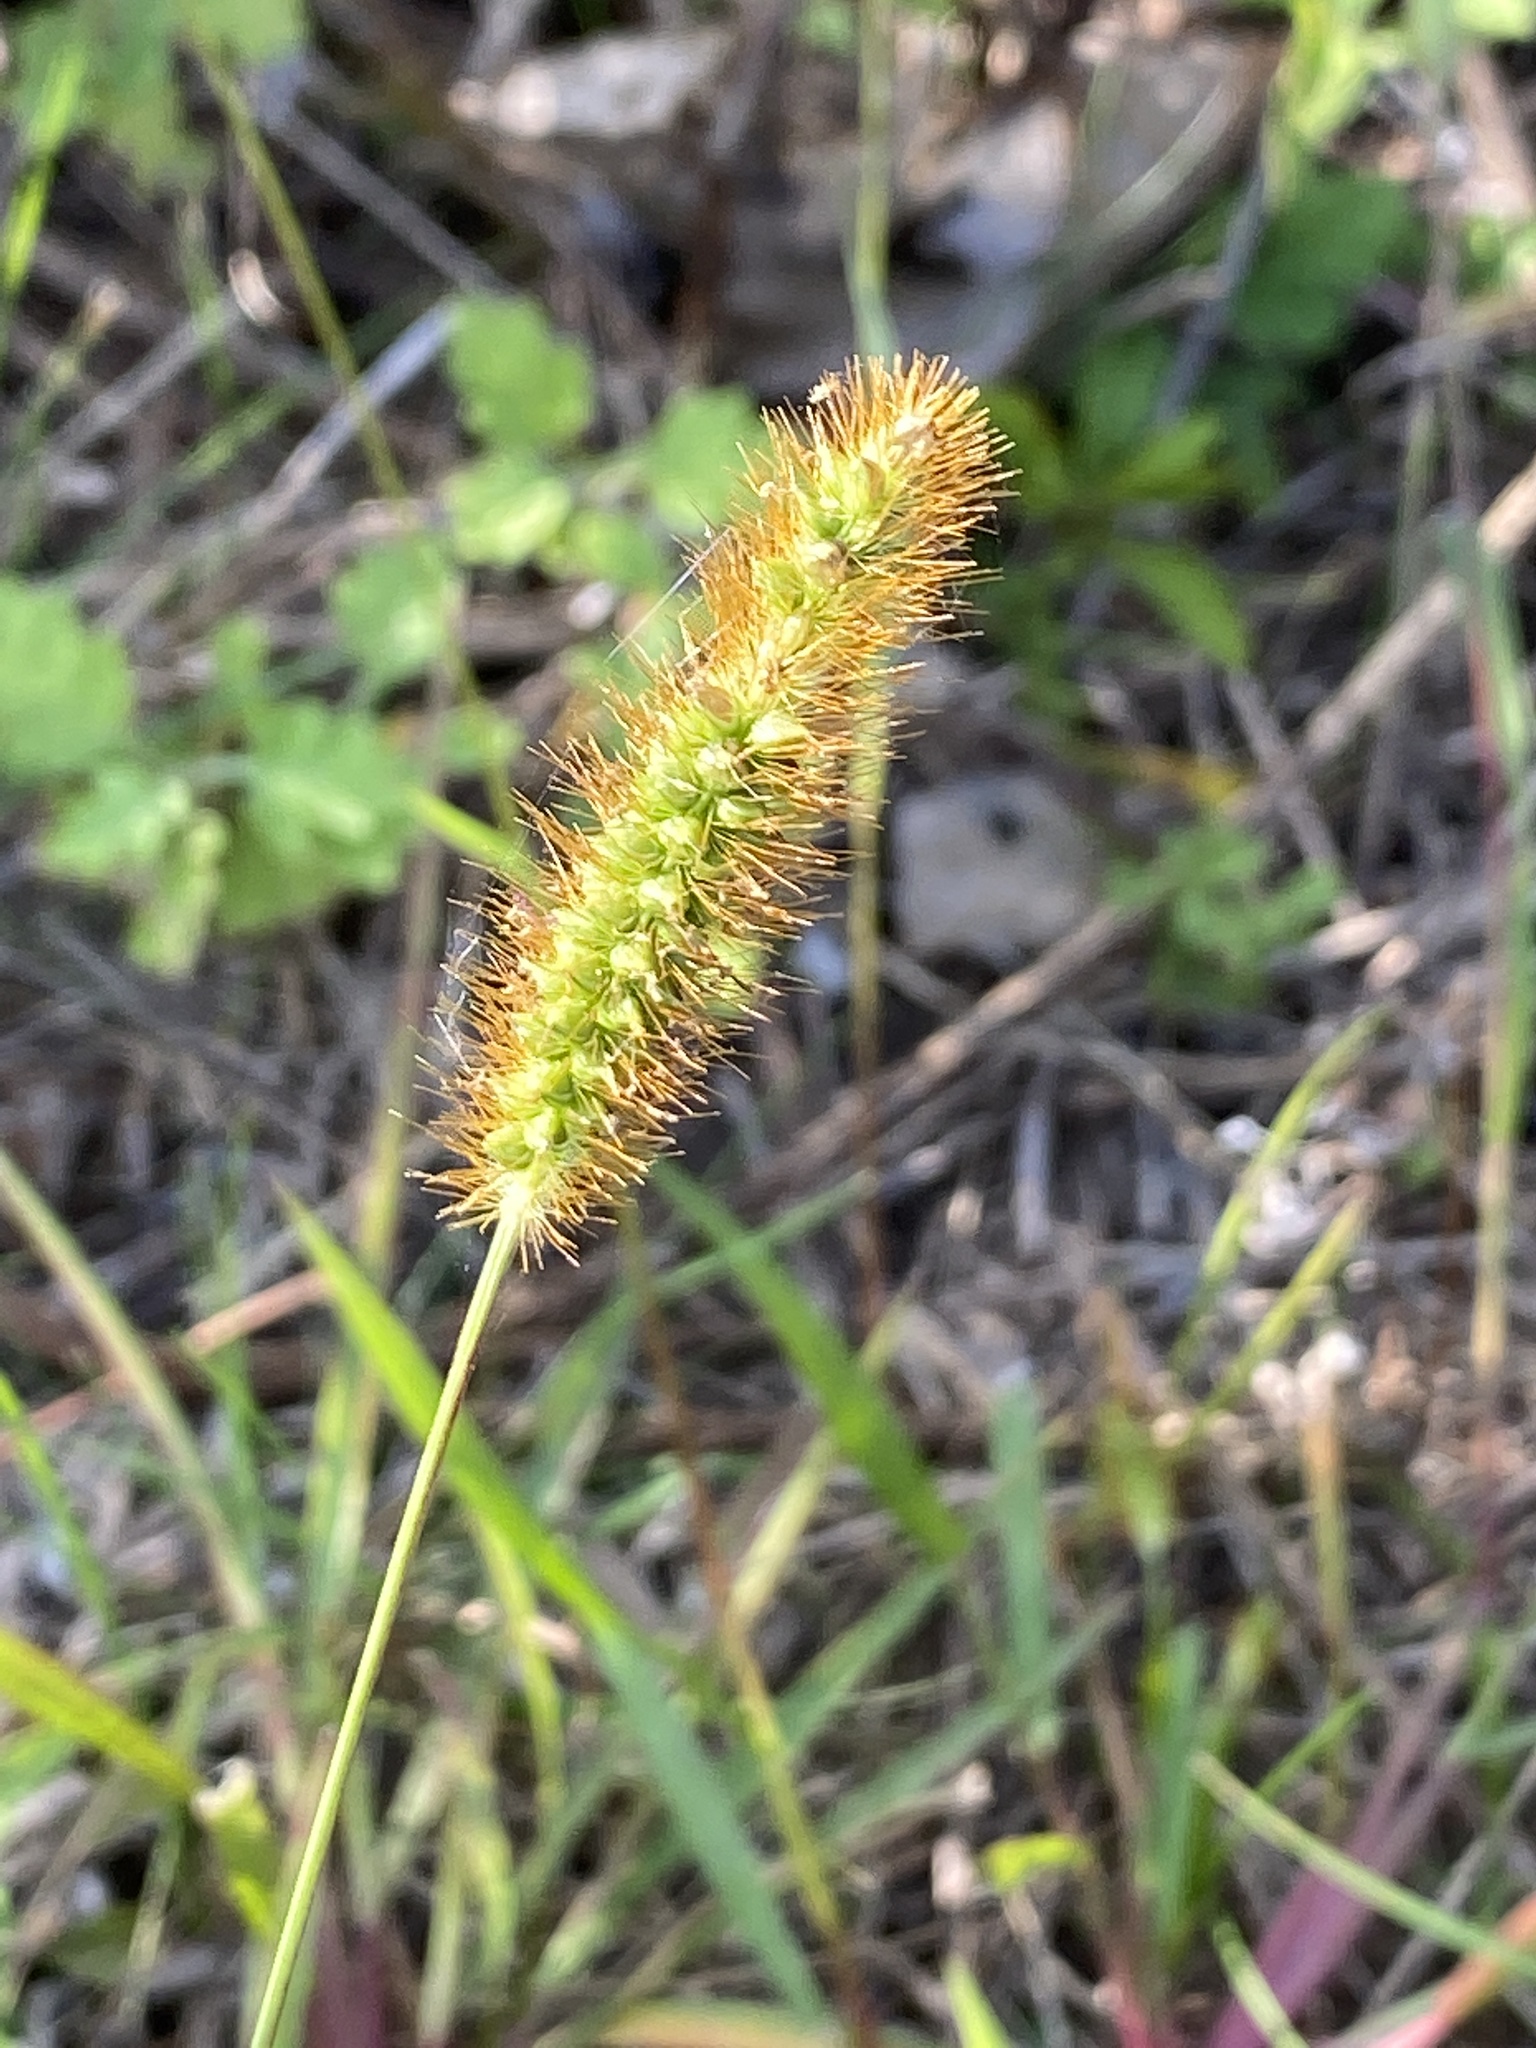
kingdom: Plantae
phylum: Tracheophyta
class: Liliopsida
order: Poales
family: Poaceae
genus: Setaria
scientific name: Setaria pumila
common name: Yellow bristle-grass
